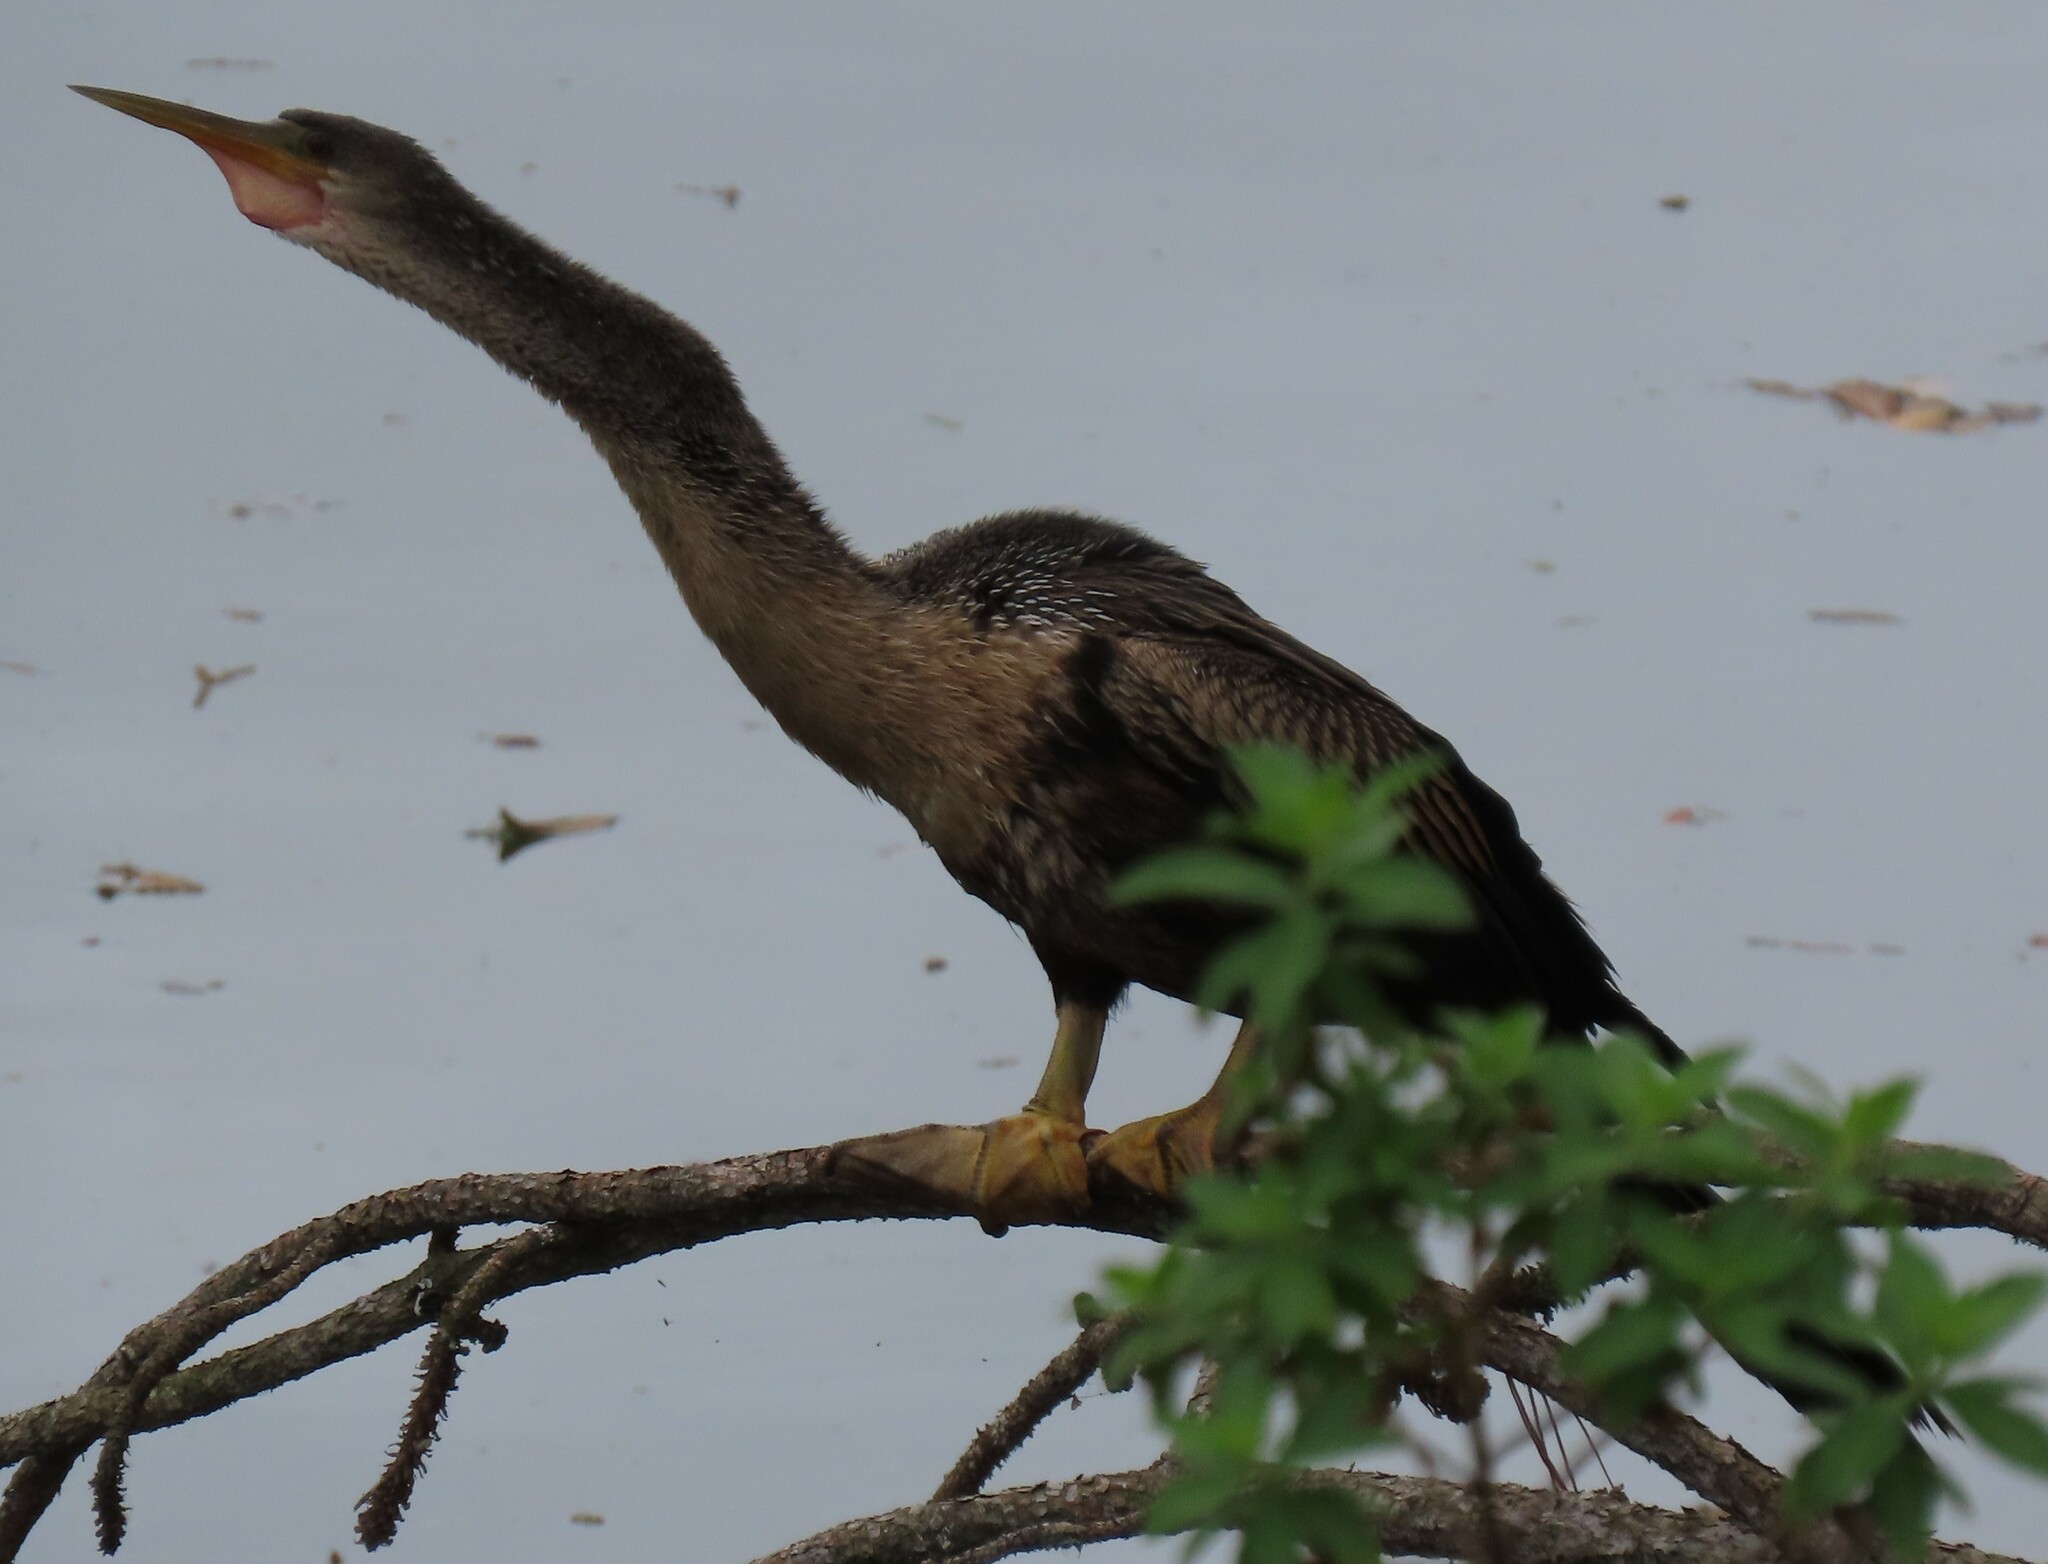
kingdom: Animalia
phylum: Chordata
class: Aves
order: Suliformes
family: Anhingidae
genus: Anhinga
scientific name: Anhinga anhinga
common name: Anhinga
